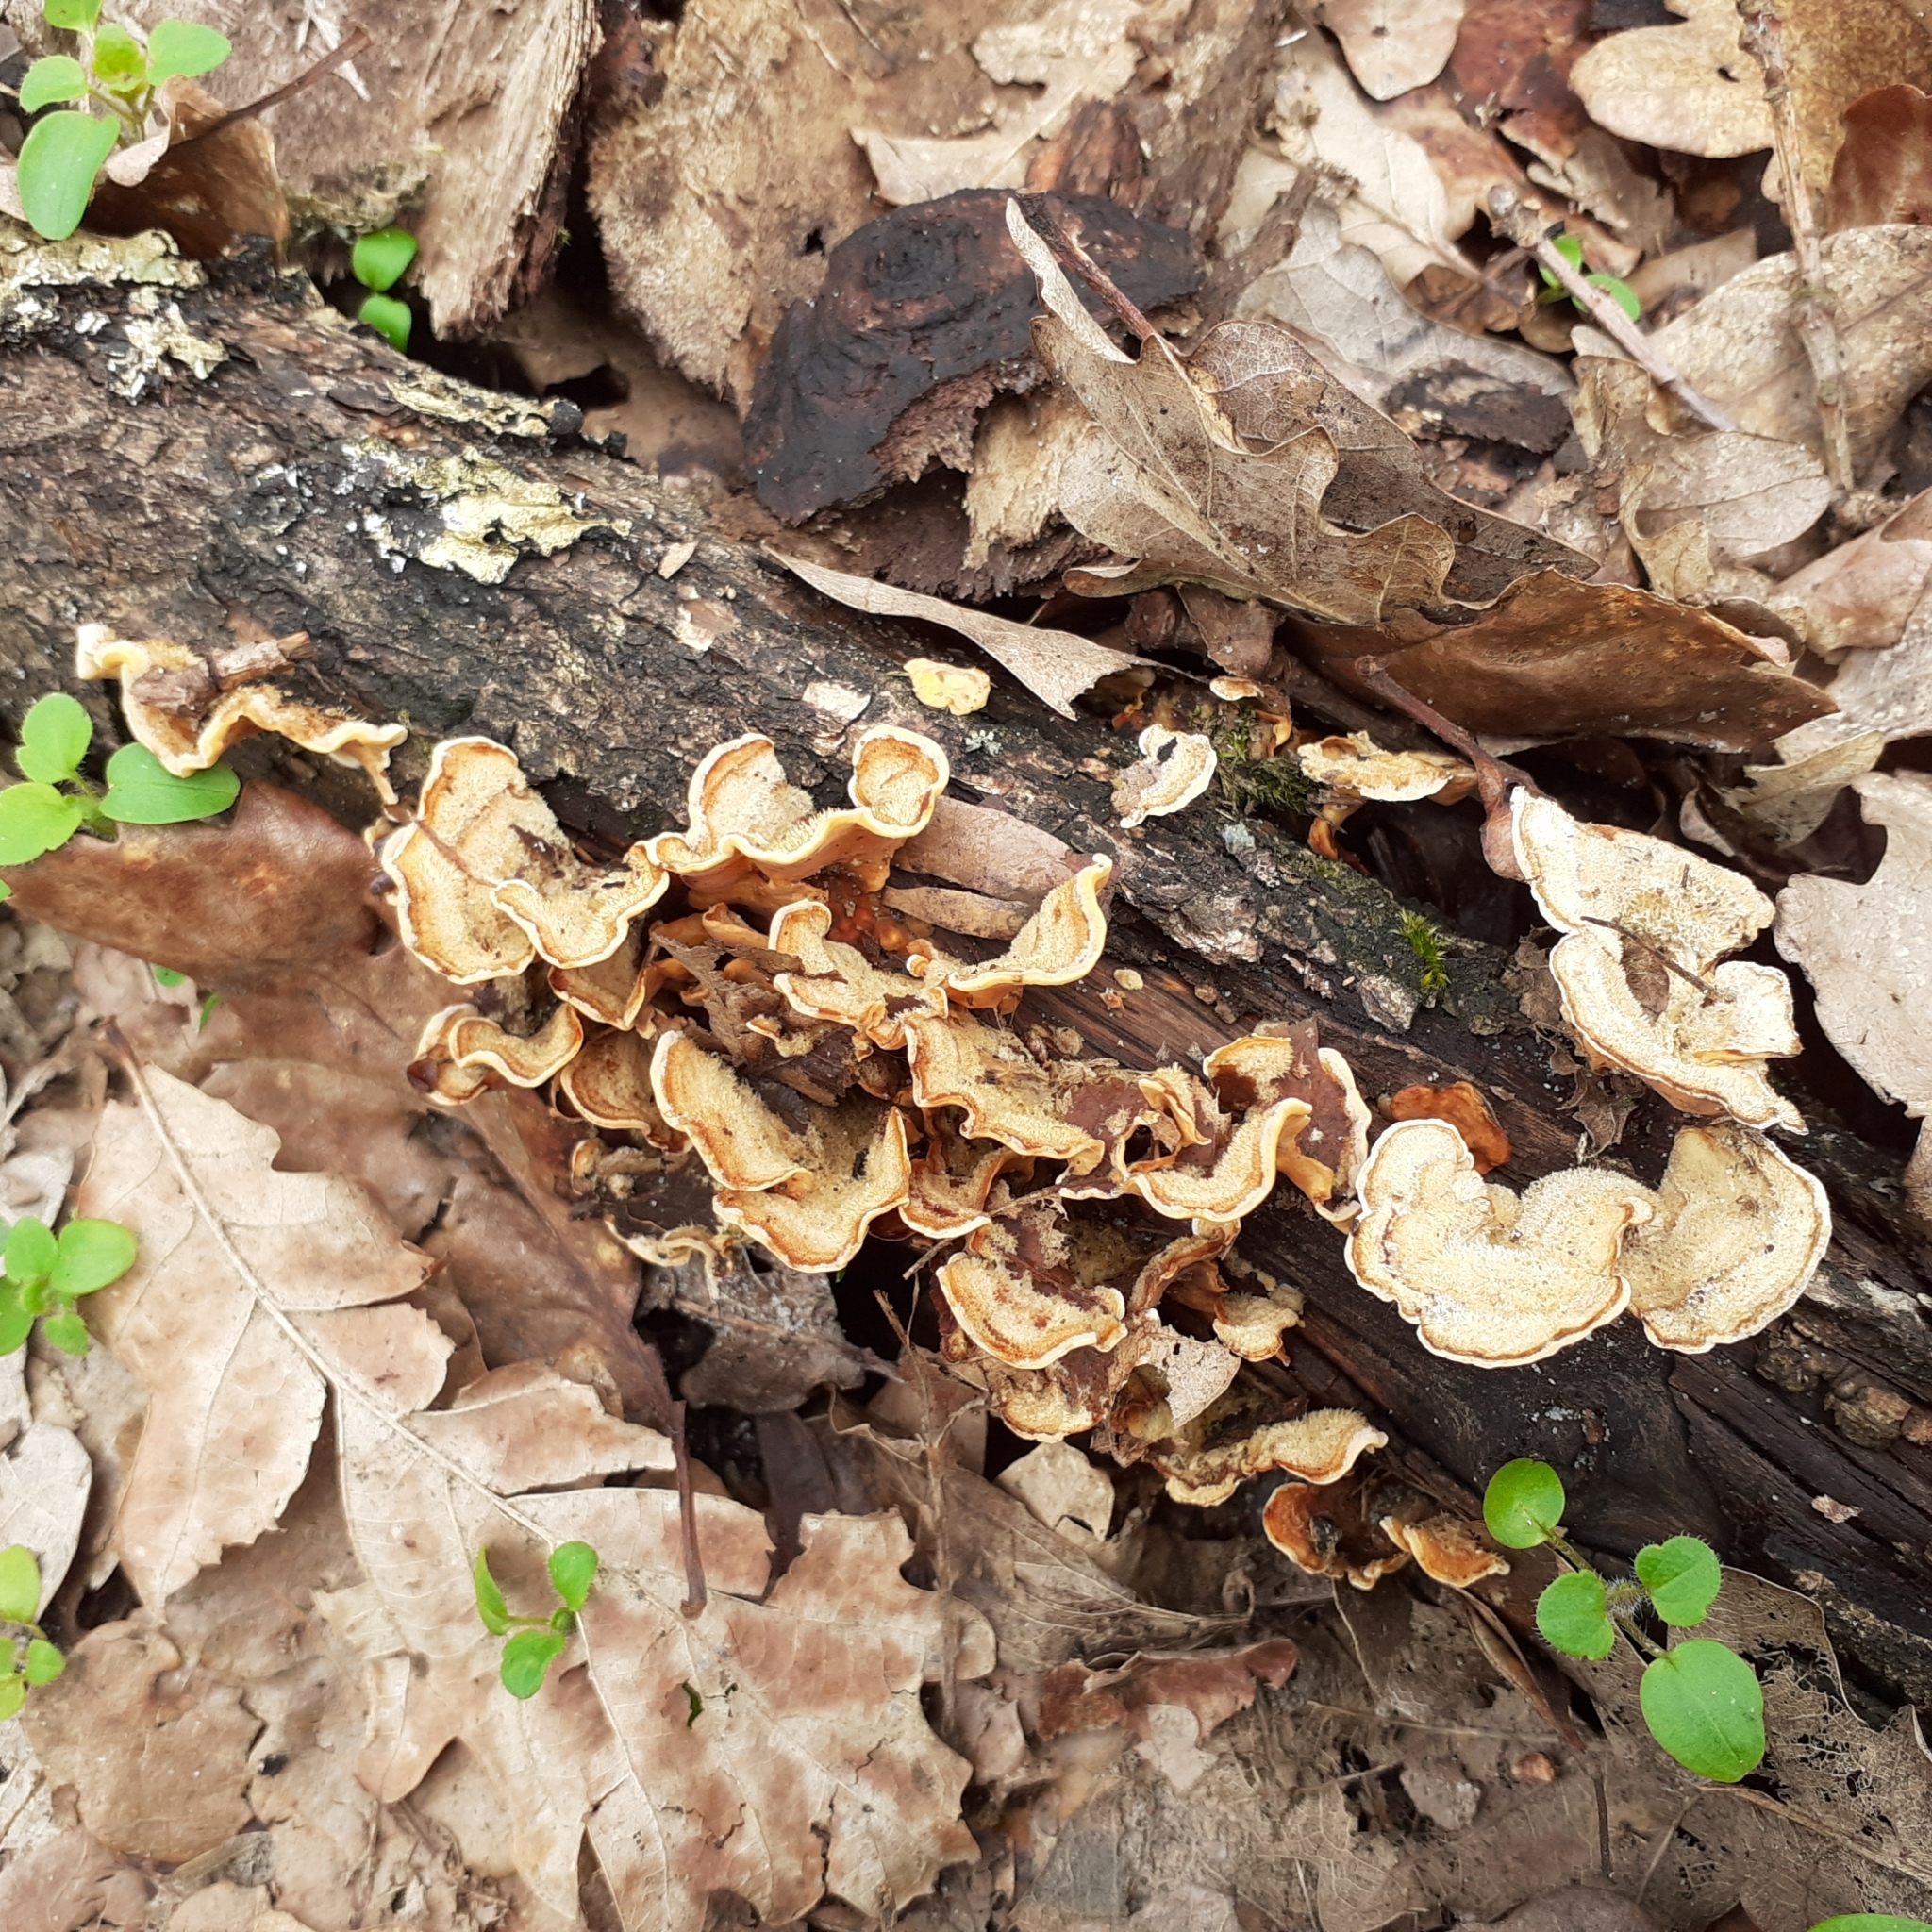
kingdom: Fungi
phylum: Basidiomycota
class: Agaricomycetes
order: Russulales
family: Stereaceae
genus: Stereum
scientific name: Stereum hirsutum
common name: Hairy curtain crust
